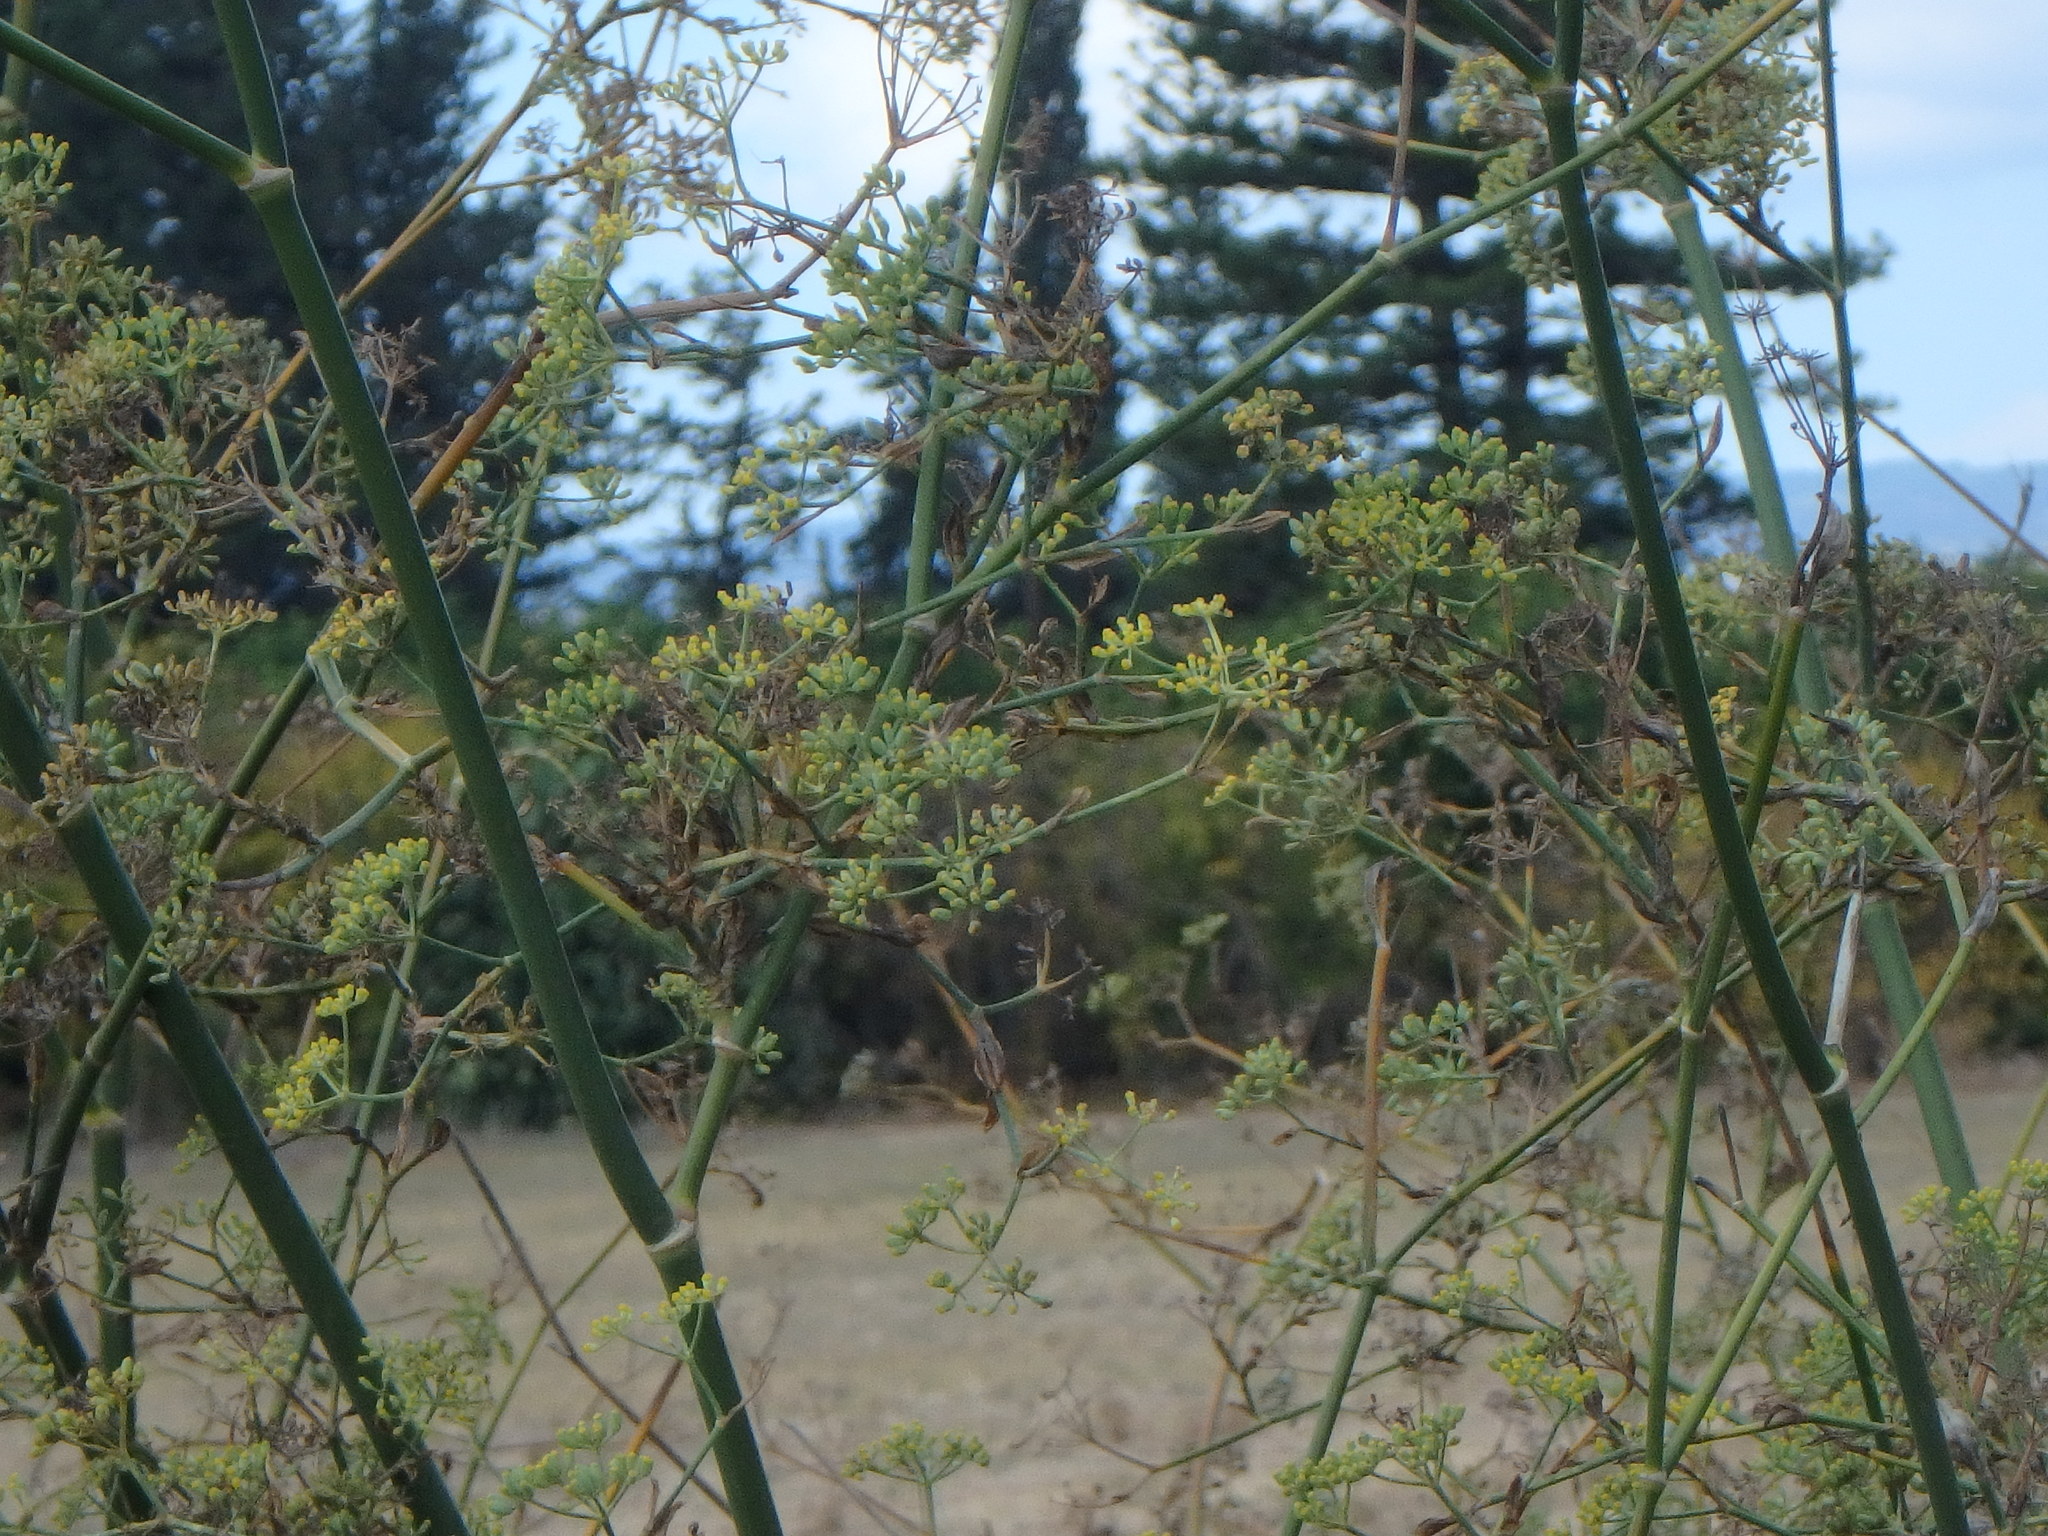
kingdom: Plantae
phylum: Tracheophyta
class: Magnoliopsida
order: Apiales
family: Apiaceae
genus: Foeniculum
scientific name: Foeniculum vulgare
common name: Fennel
